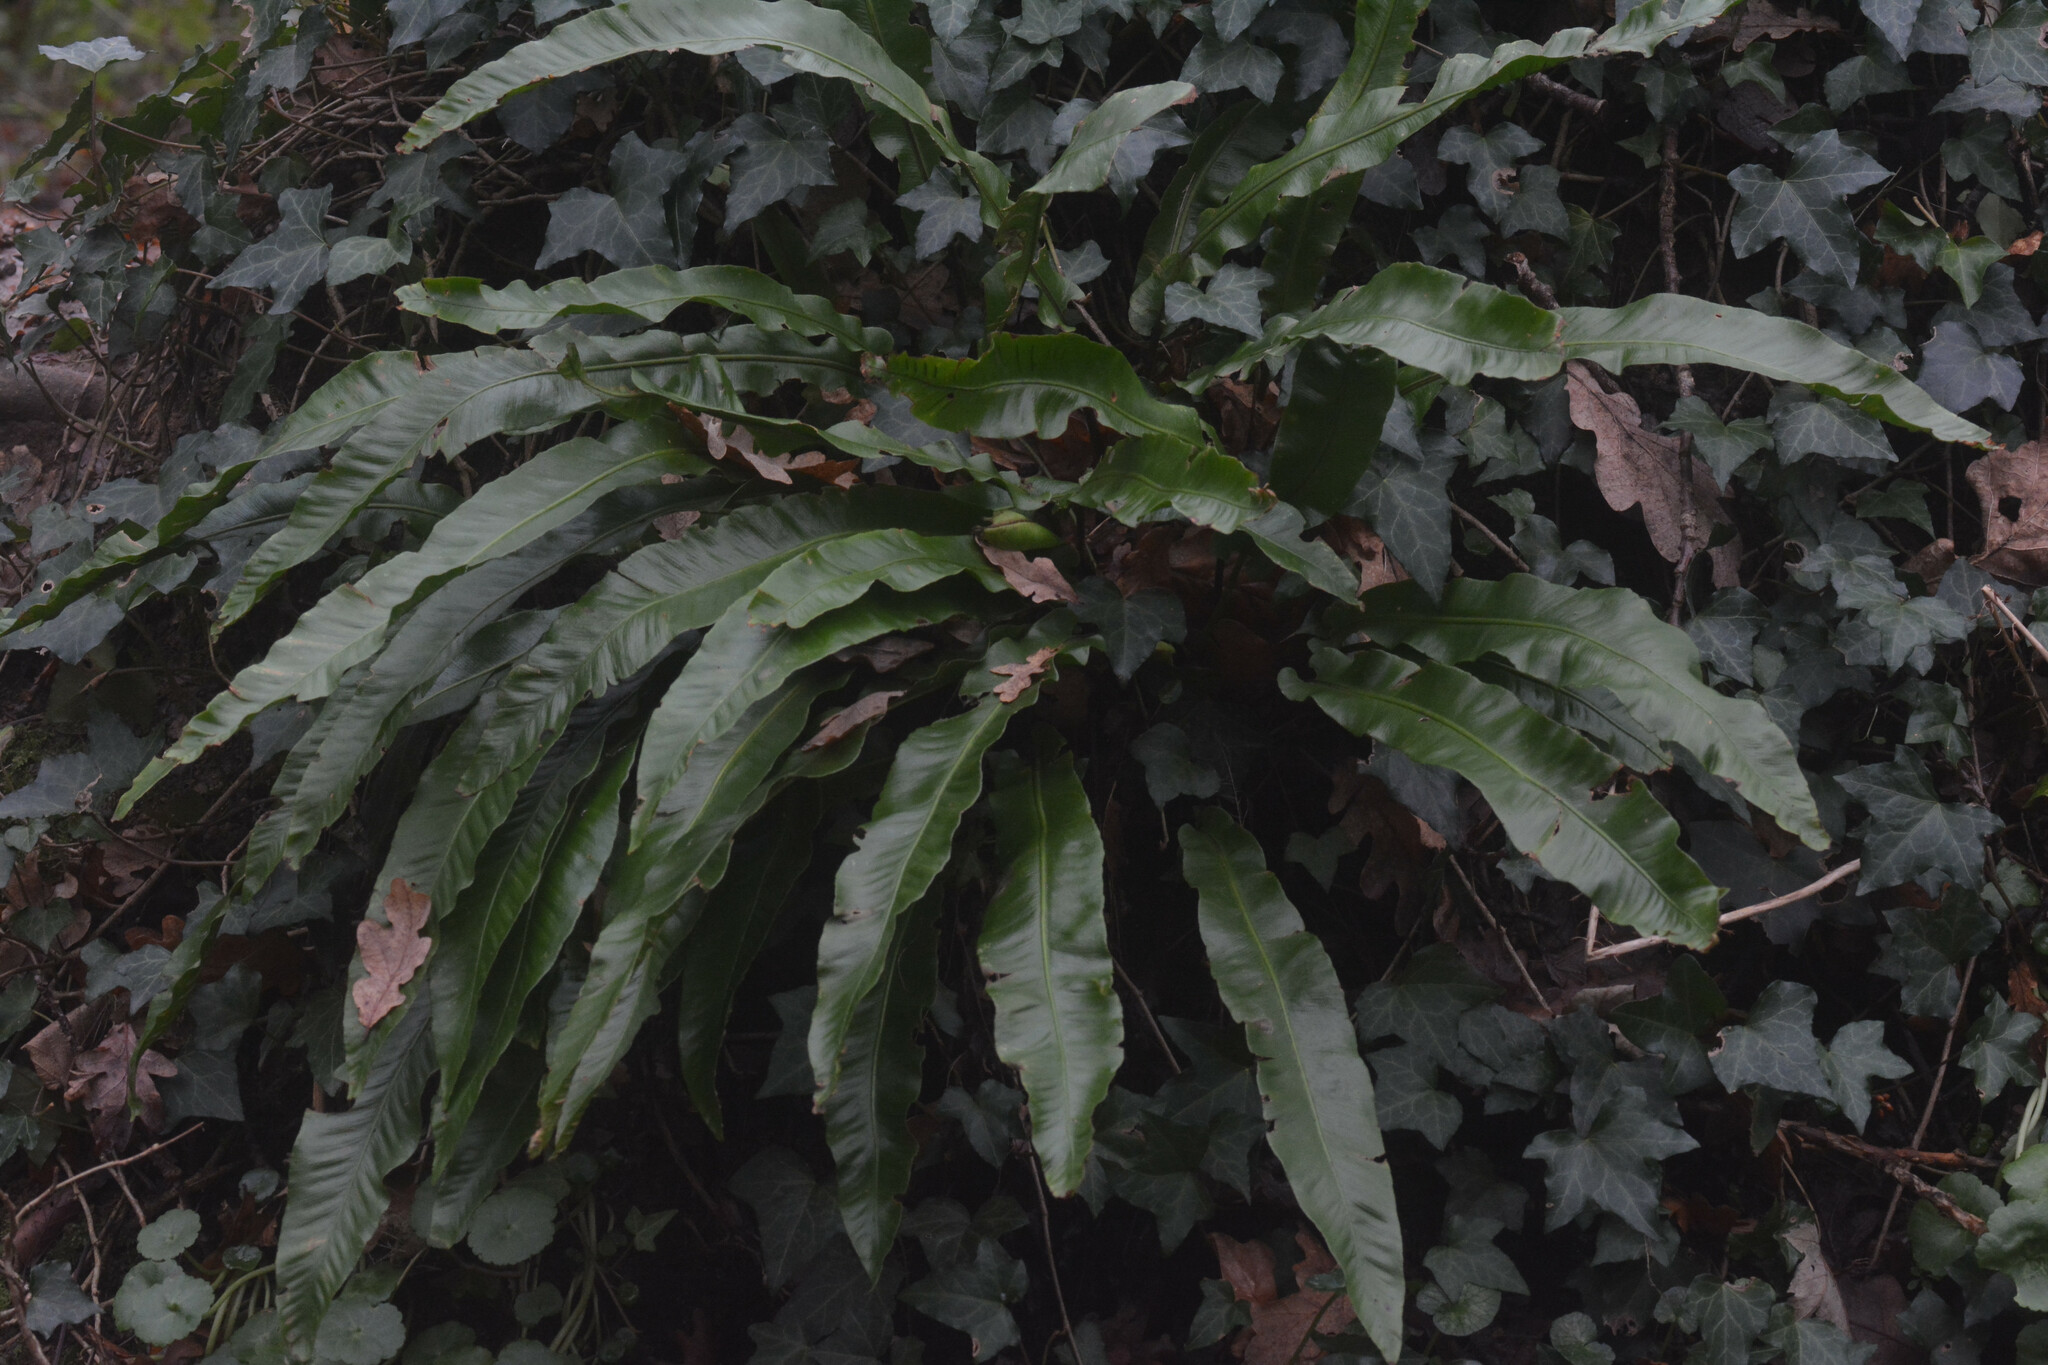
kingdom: Plantae
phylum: Tracheophyta
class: Polypodiopsida
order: Polypodiales
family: Aspleniaceae
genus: Asplenium
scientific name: Asplenium scolopendrium
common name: Hart's-tongue fern
